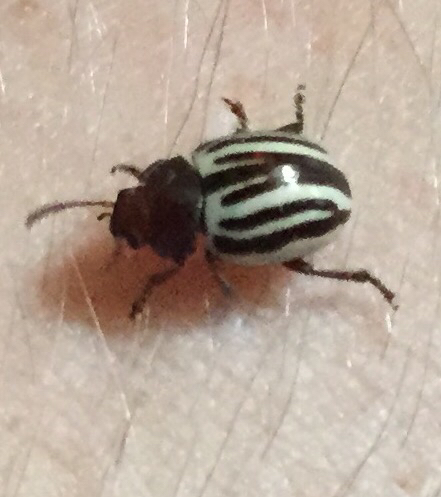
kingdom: Animalia
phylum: Arthropoda
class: Insecta
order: Coleoptera
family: Chrysomelidae
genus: Calligrapha
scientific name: Calligrapha
